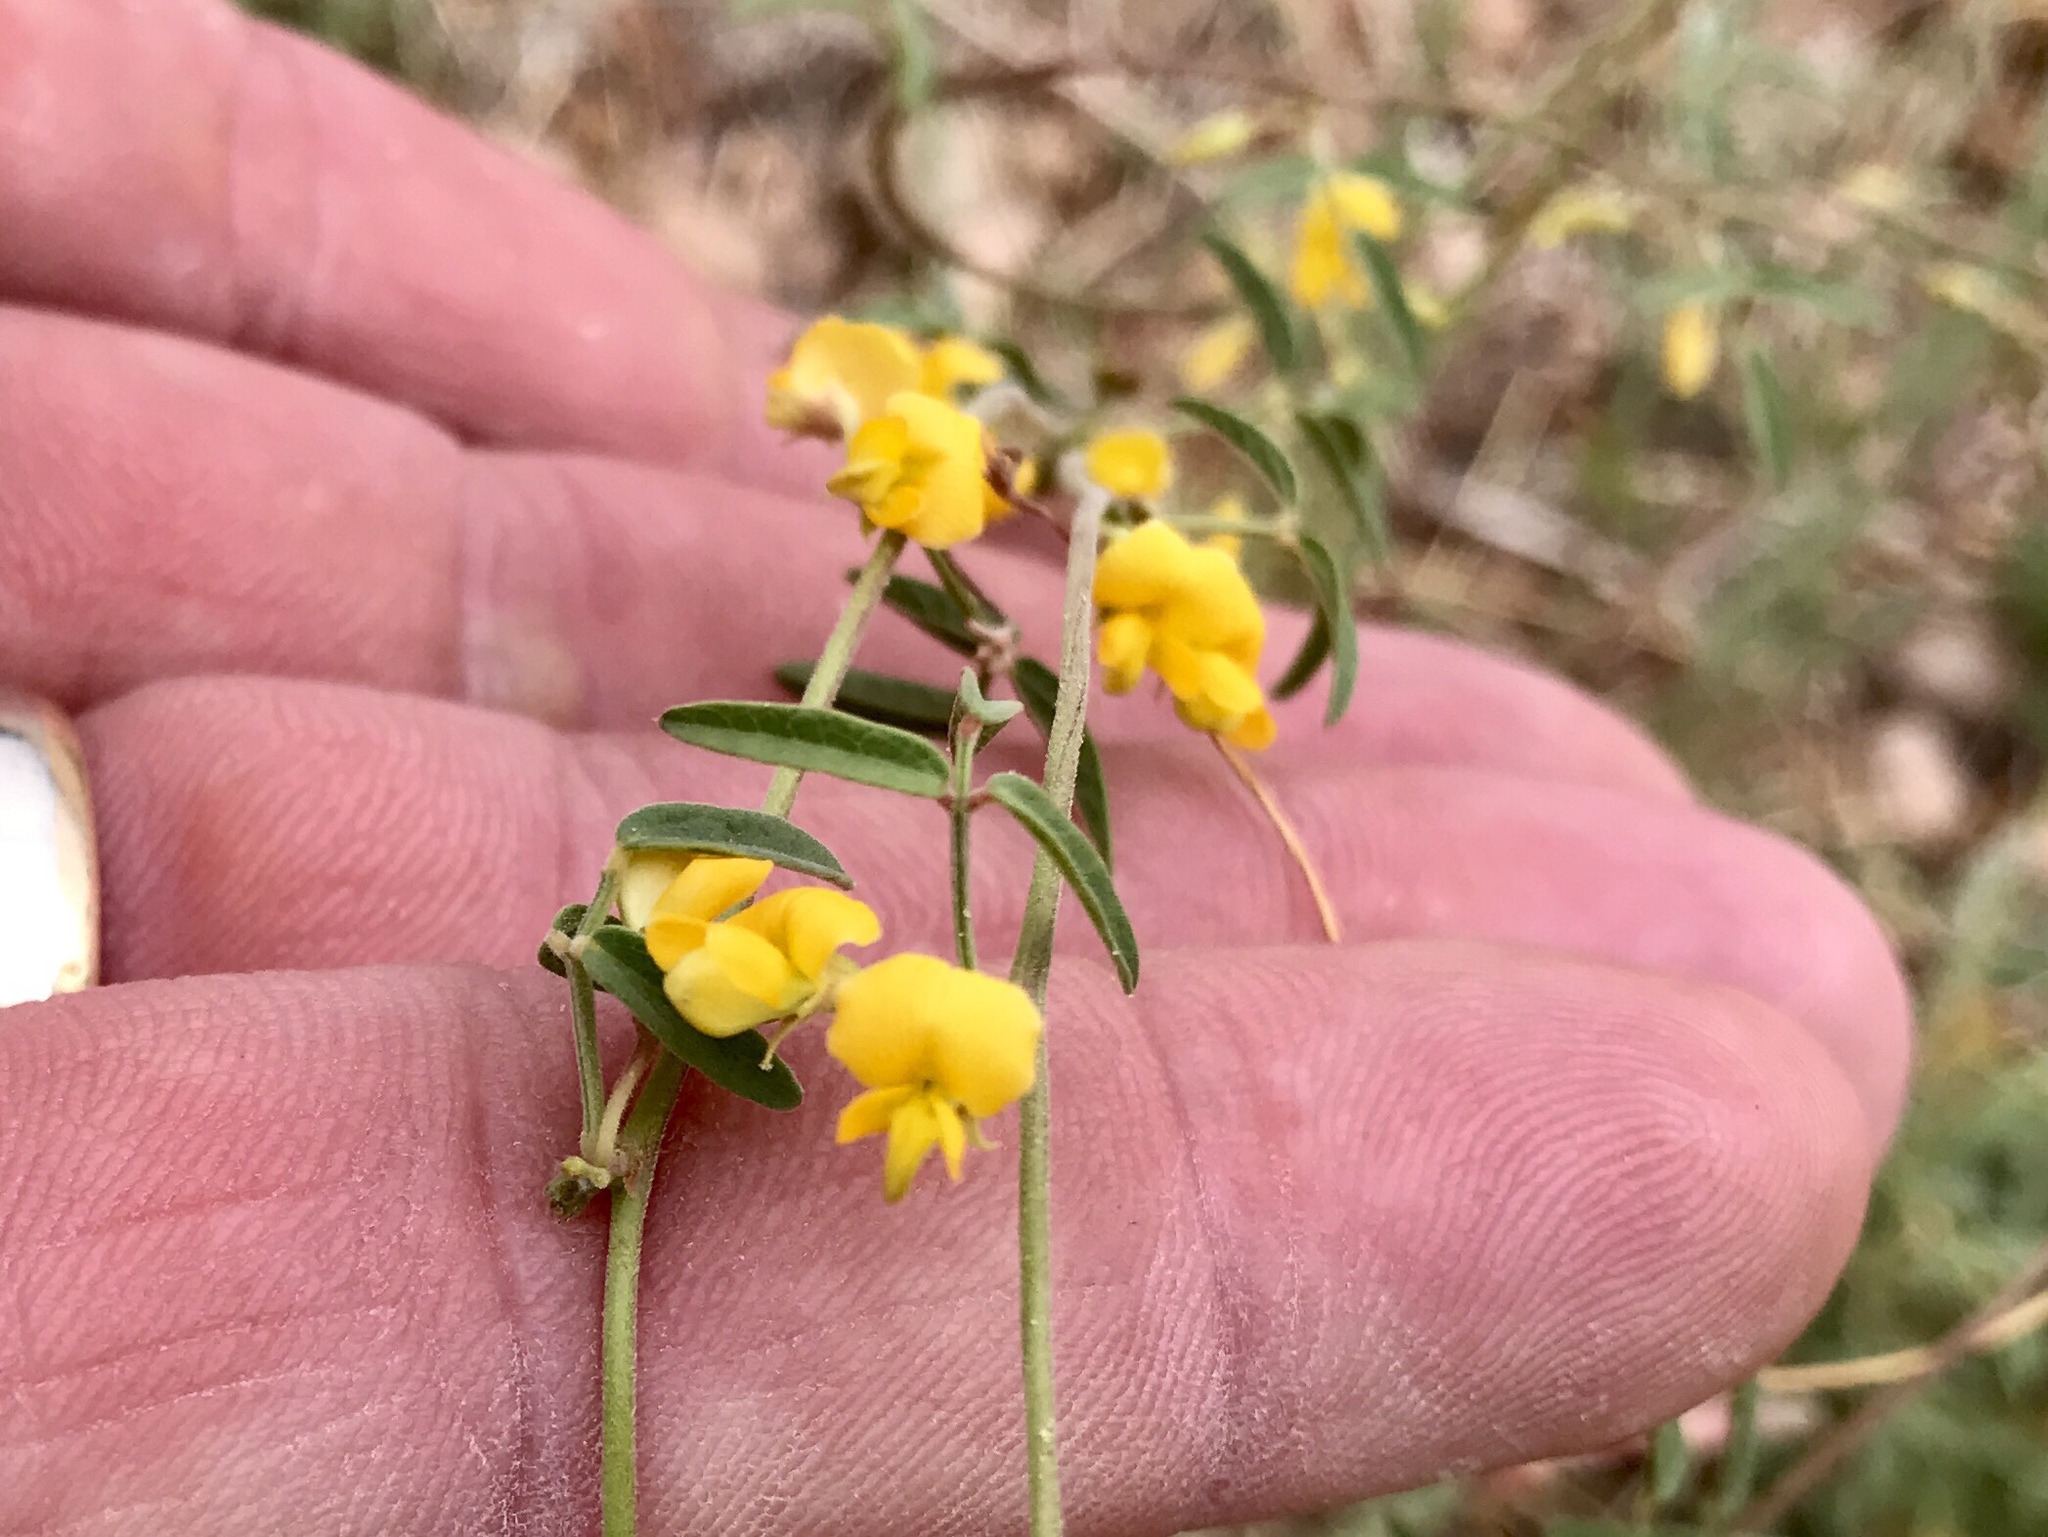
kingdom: Plantae
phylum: Tracheophyta
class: Magnoliopsida
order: Fabales
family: Fabaceae
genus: Rhynchosia
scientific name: Rhynchosia senna
